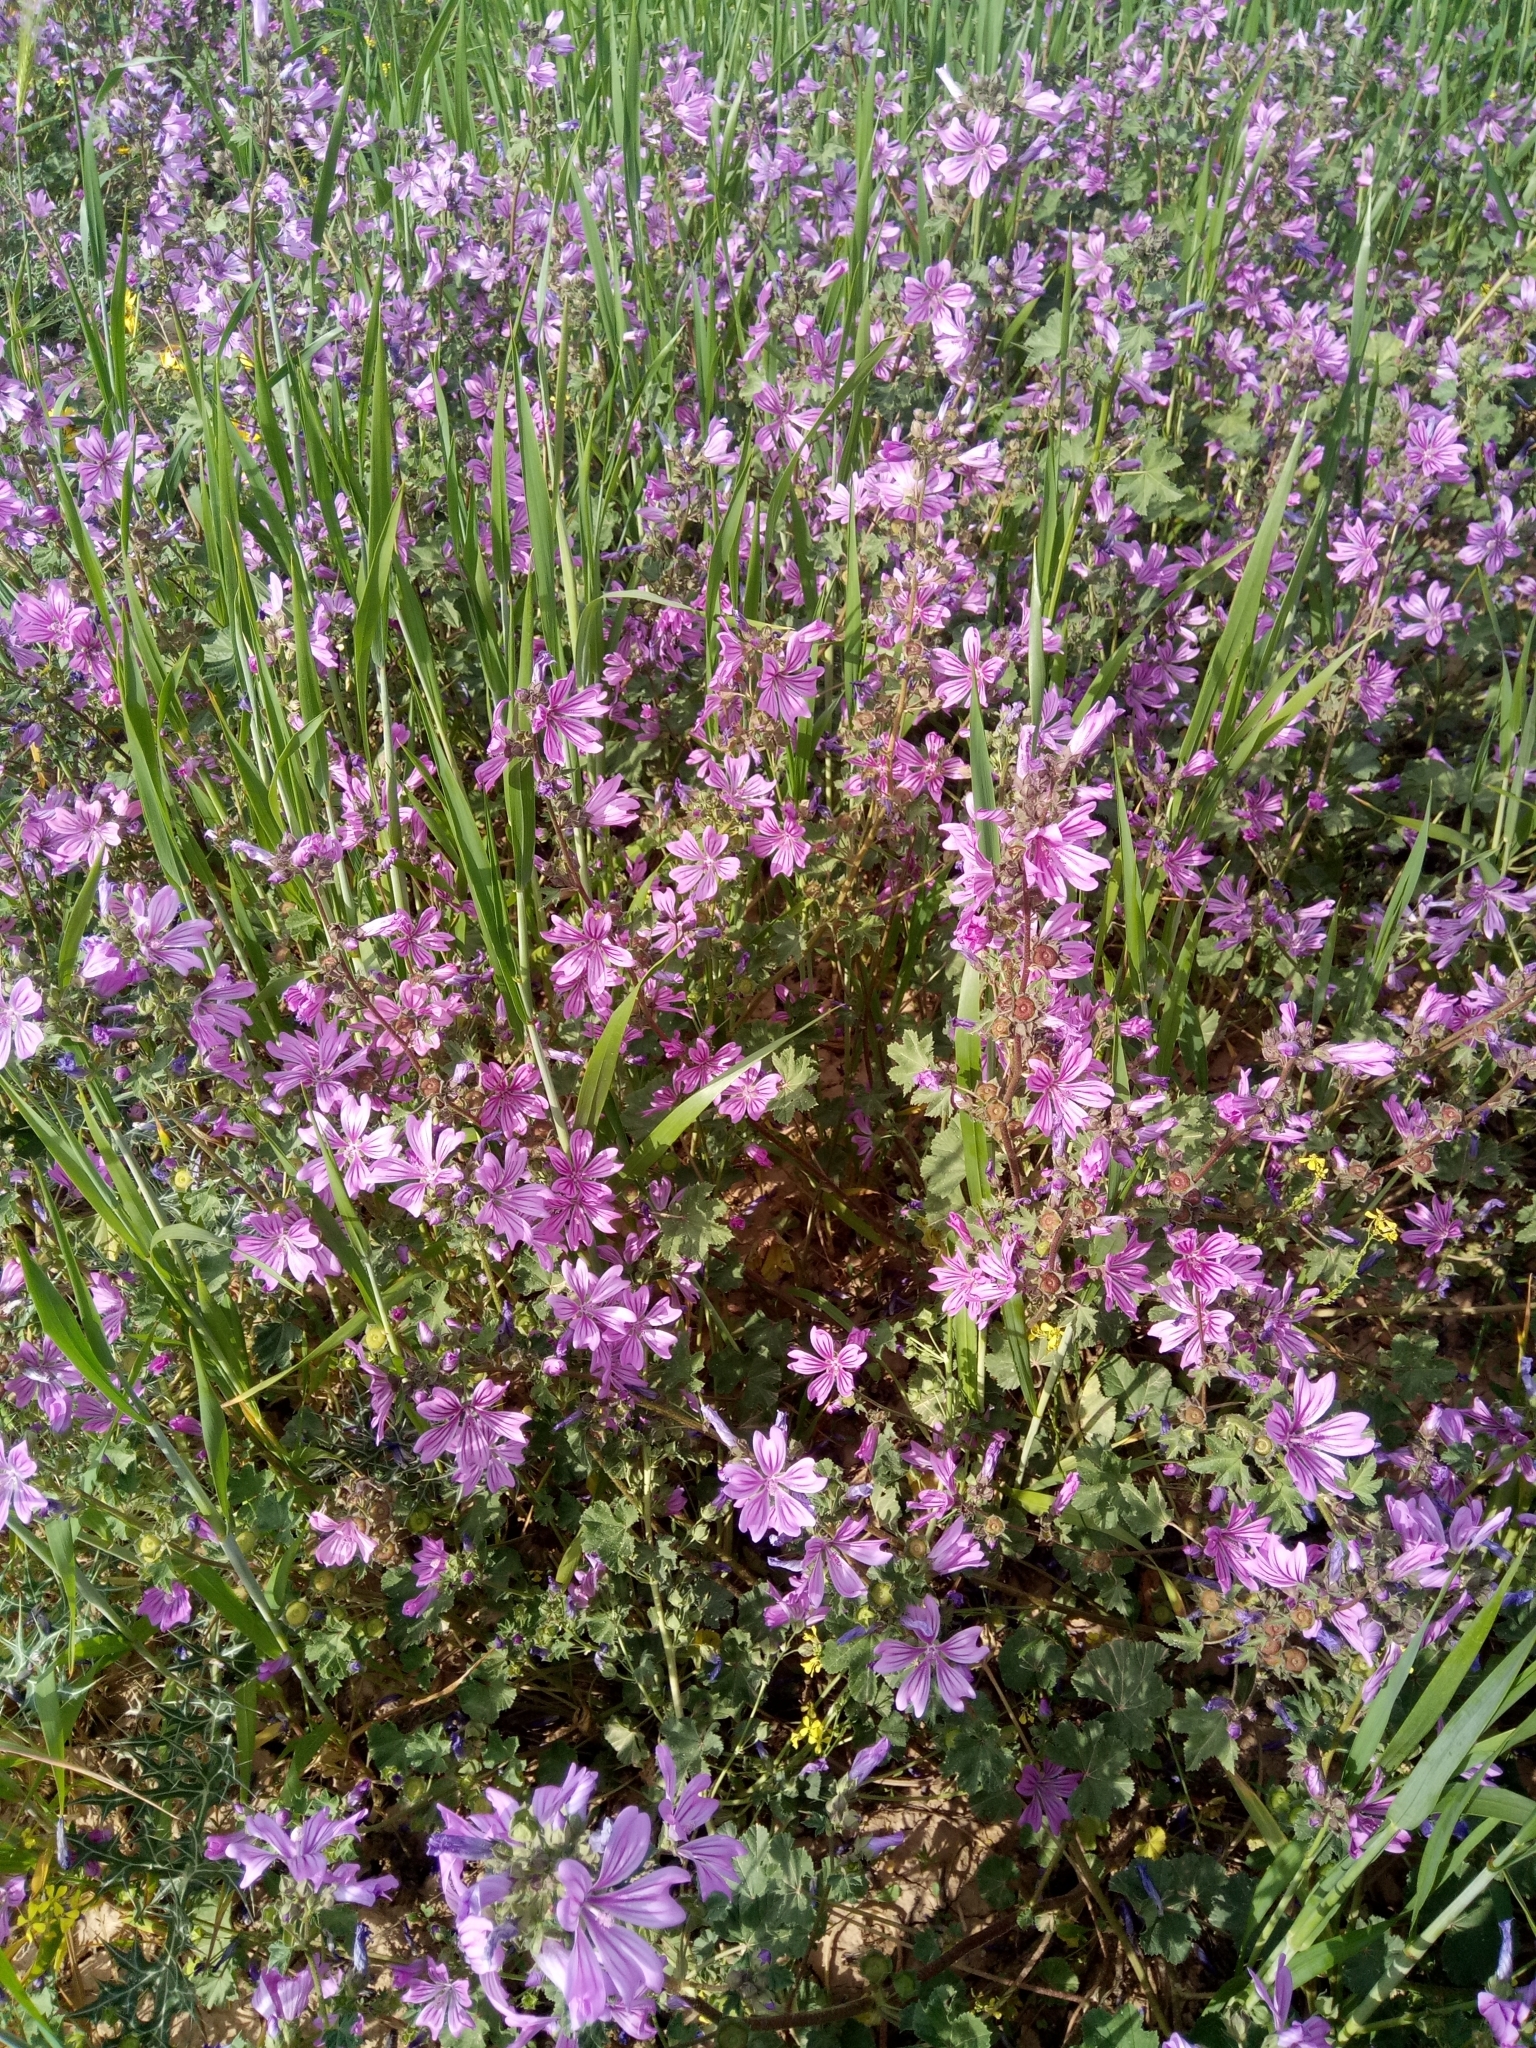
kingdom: Plantae
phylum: Tracheophyta
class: Magnoliopsida
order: Malvales
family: Malvaceae
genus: Malva
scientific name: Malva sylvestris
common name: Common mallow
